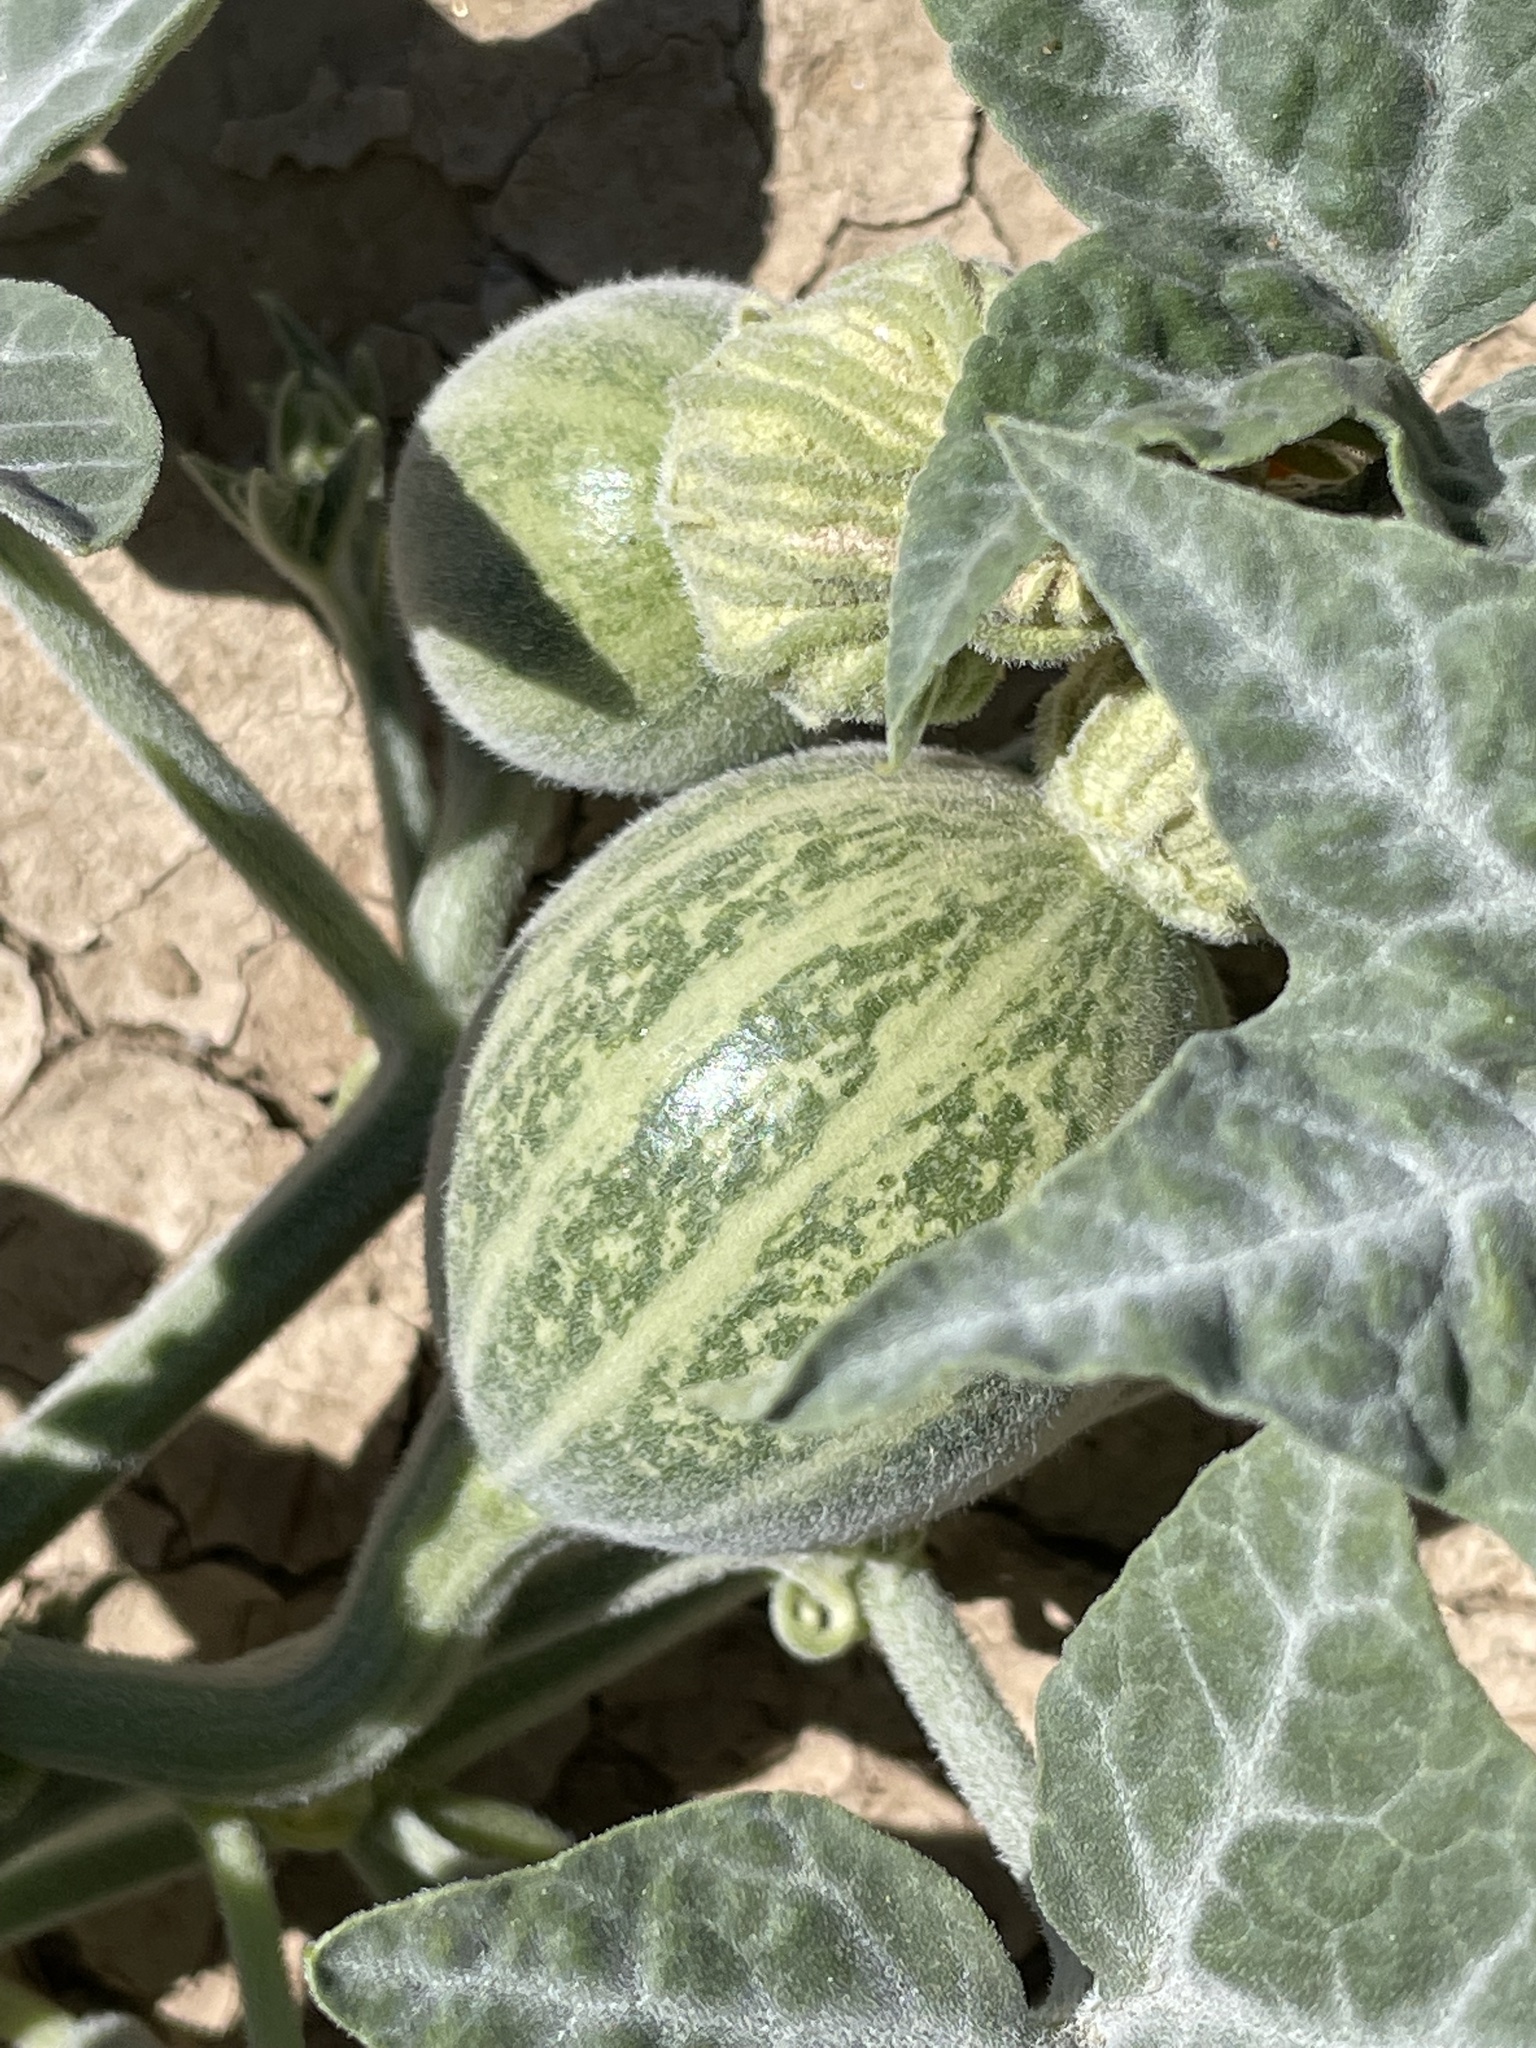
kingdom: Plantae
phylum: Tracheophyta
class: Magnoliopsida
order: Cucurbitales
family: Cucurbitaceae
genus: Cucurbita
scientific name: Cucurbita palmata
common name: Coyote-melon
